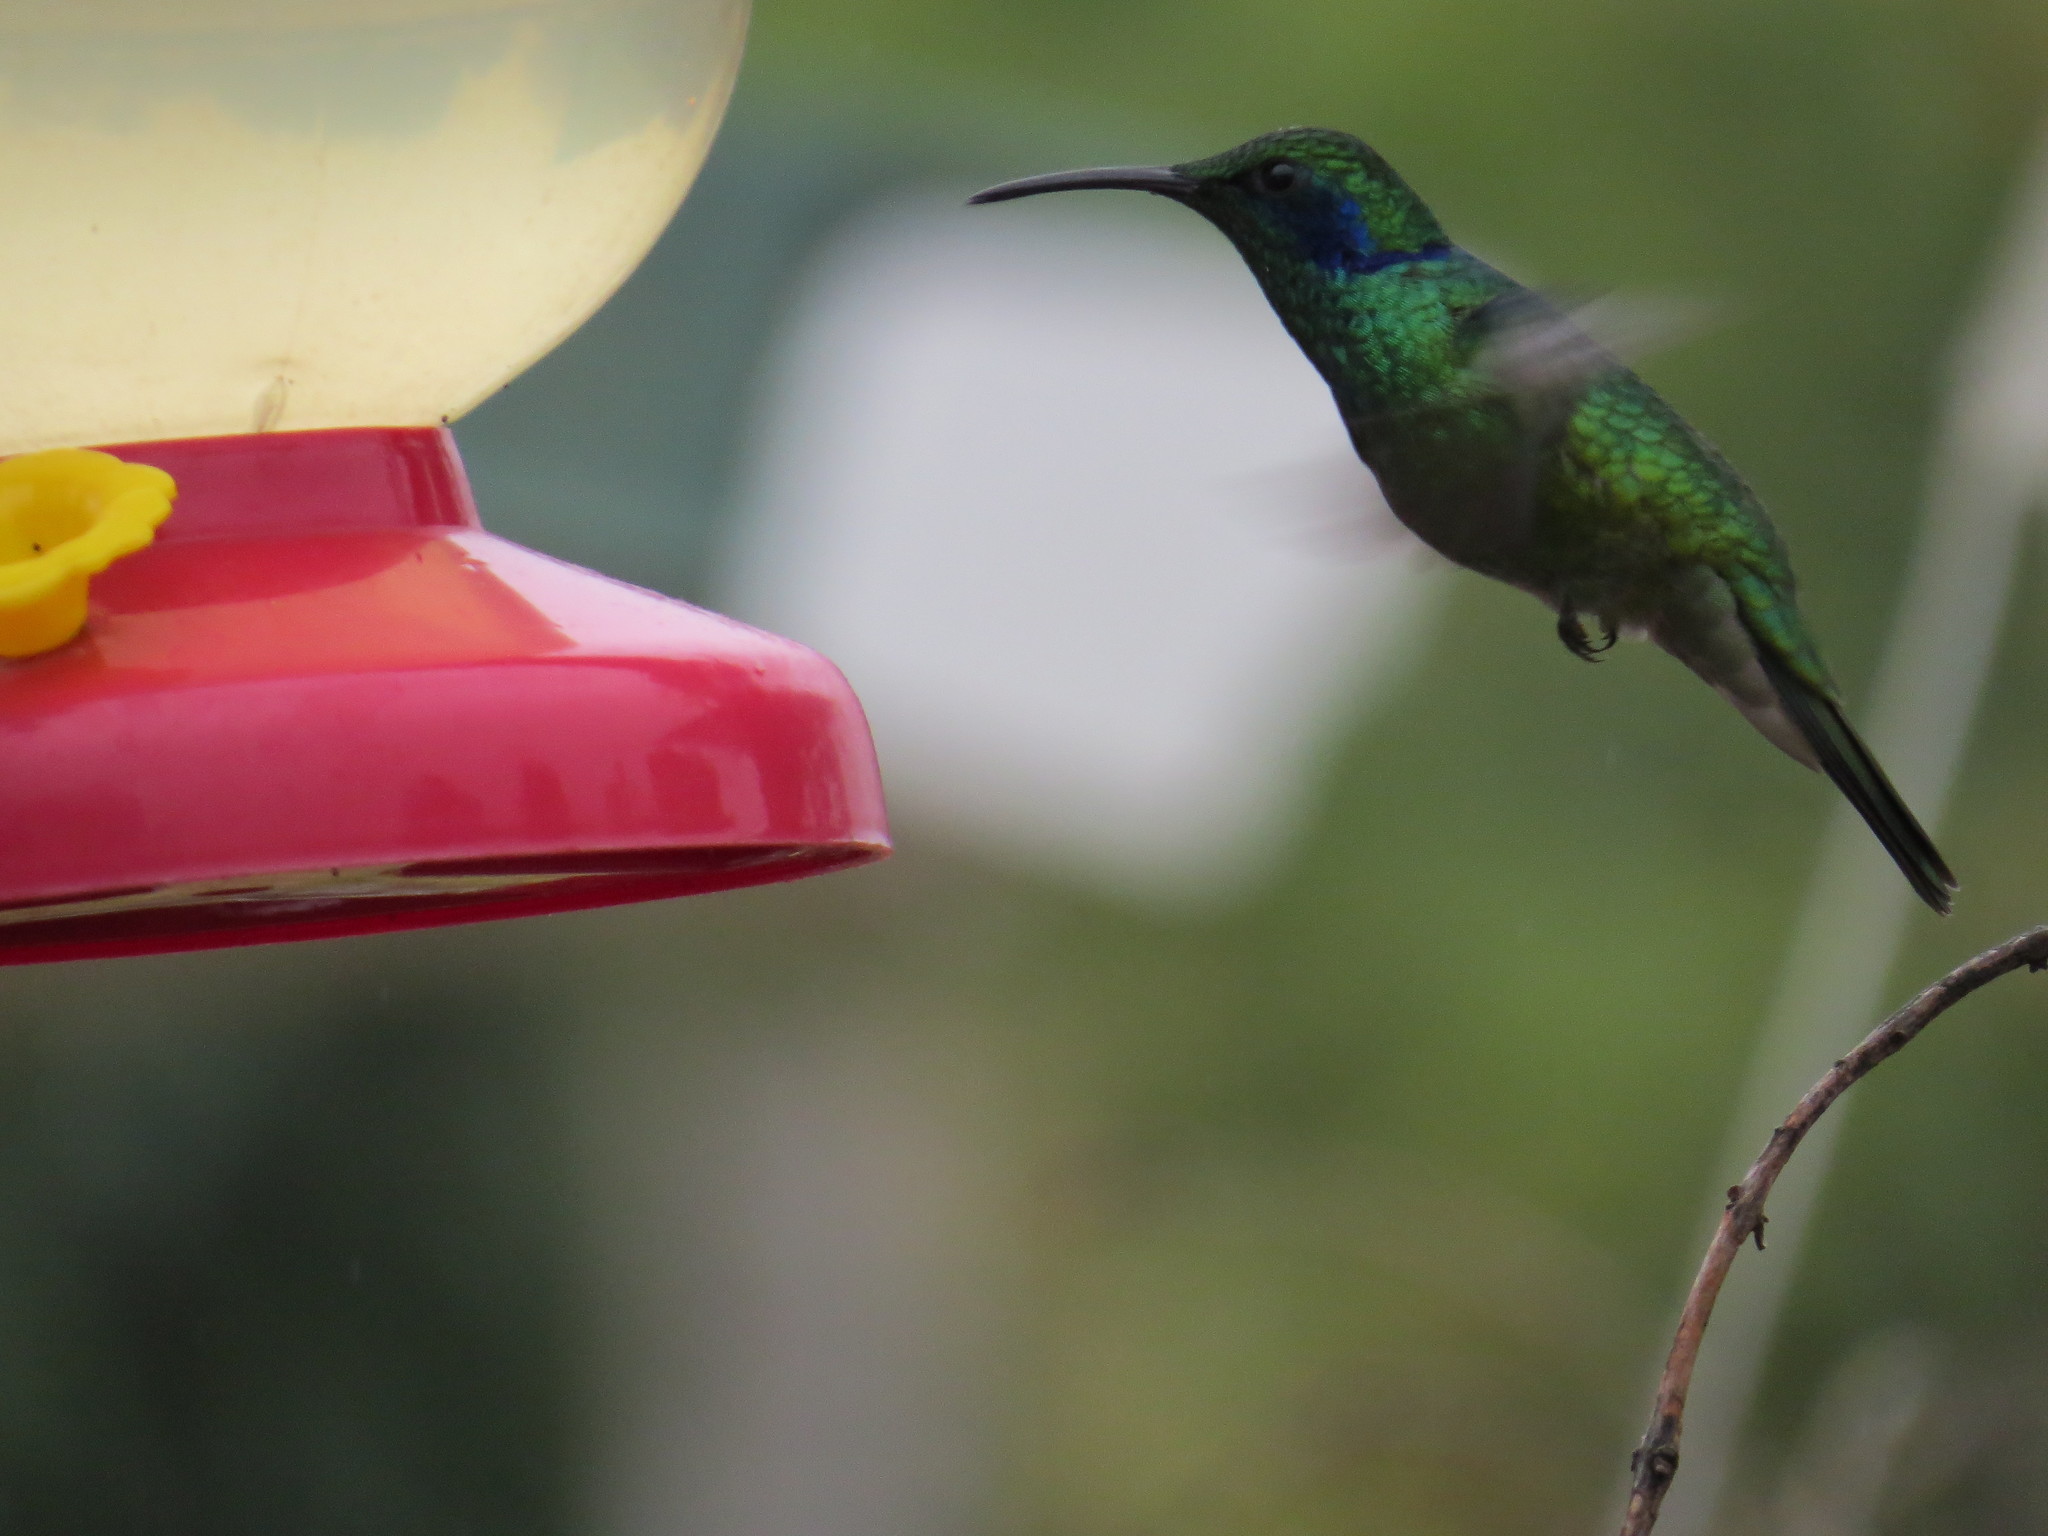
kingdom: Animalia
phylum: Chordata
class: Aves
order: Apodiformes
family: Trochilidae
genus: Colibri
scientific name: Colibri cyanotus
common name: Lesser violetear
